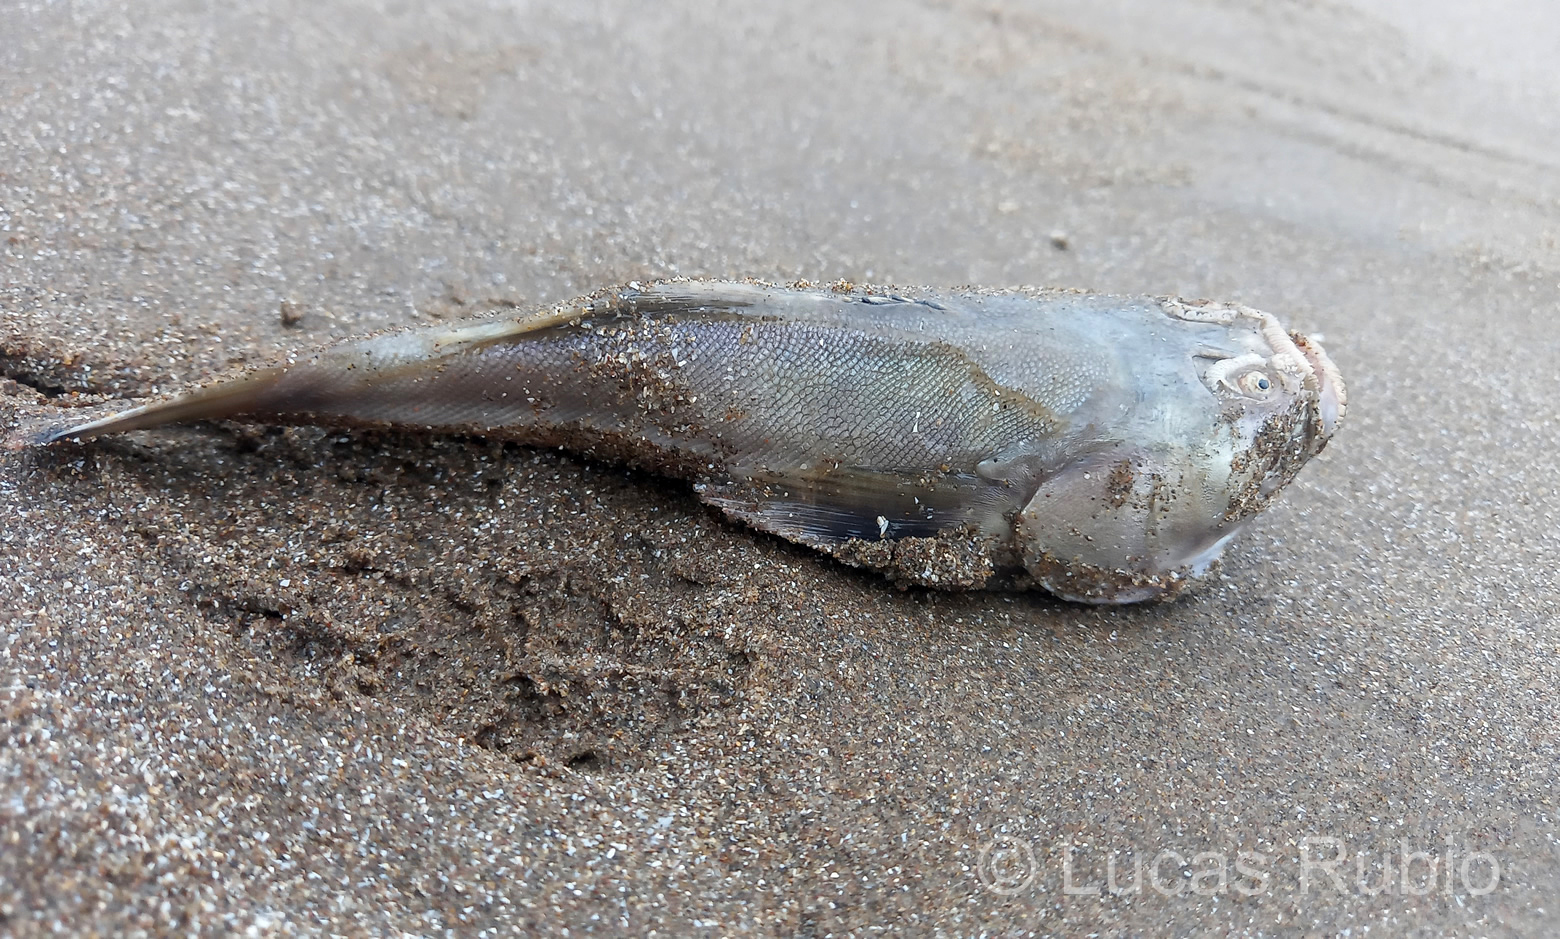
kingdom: Animalia
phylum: Chordata
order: Perciformes
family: Uranoscopidae
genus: Astroscopus
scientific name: Astroscopus sexspinosus
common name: Brazilian stargazer
